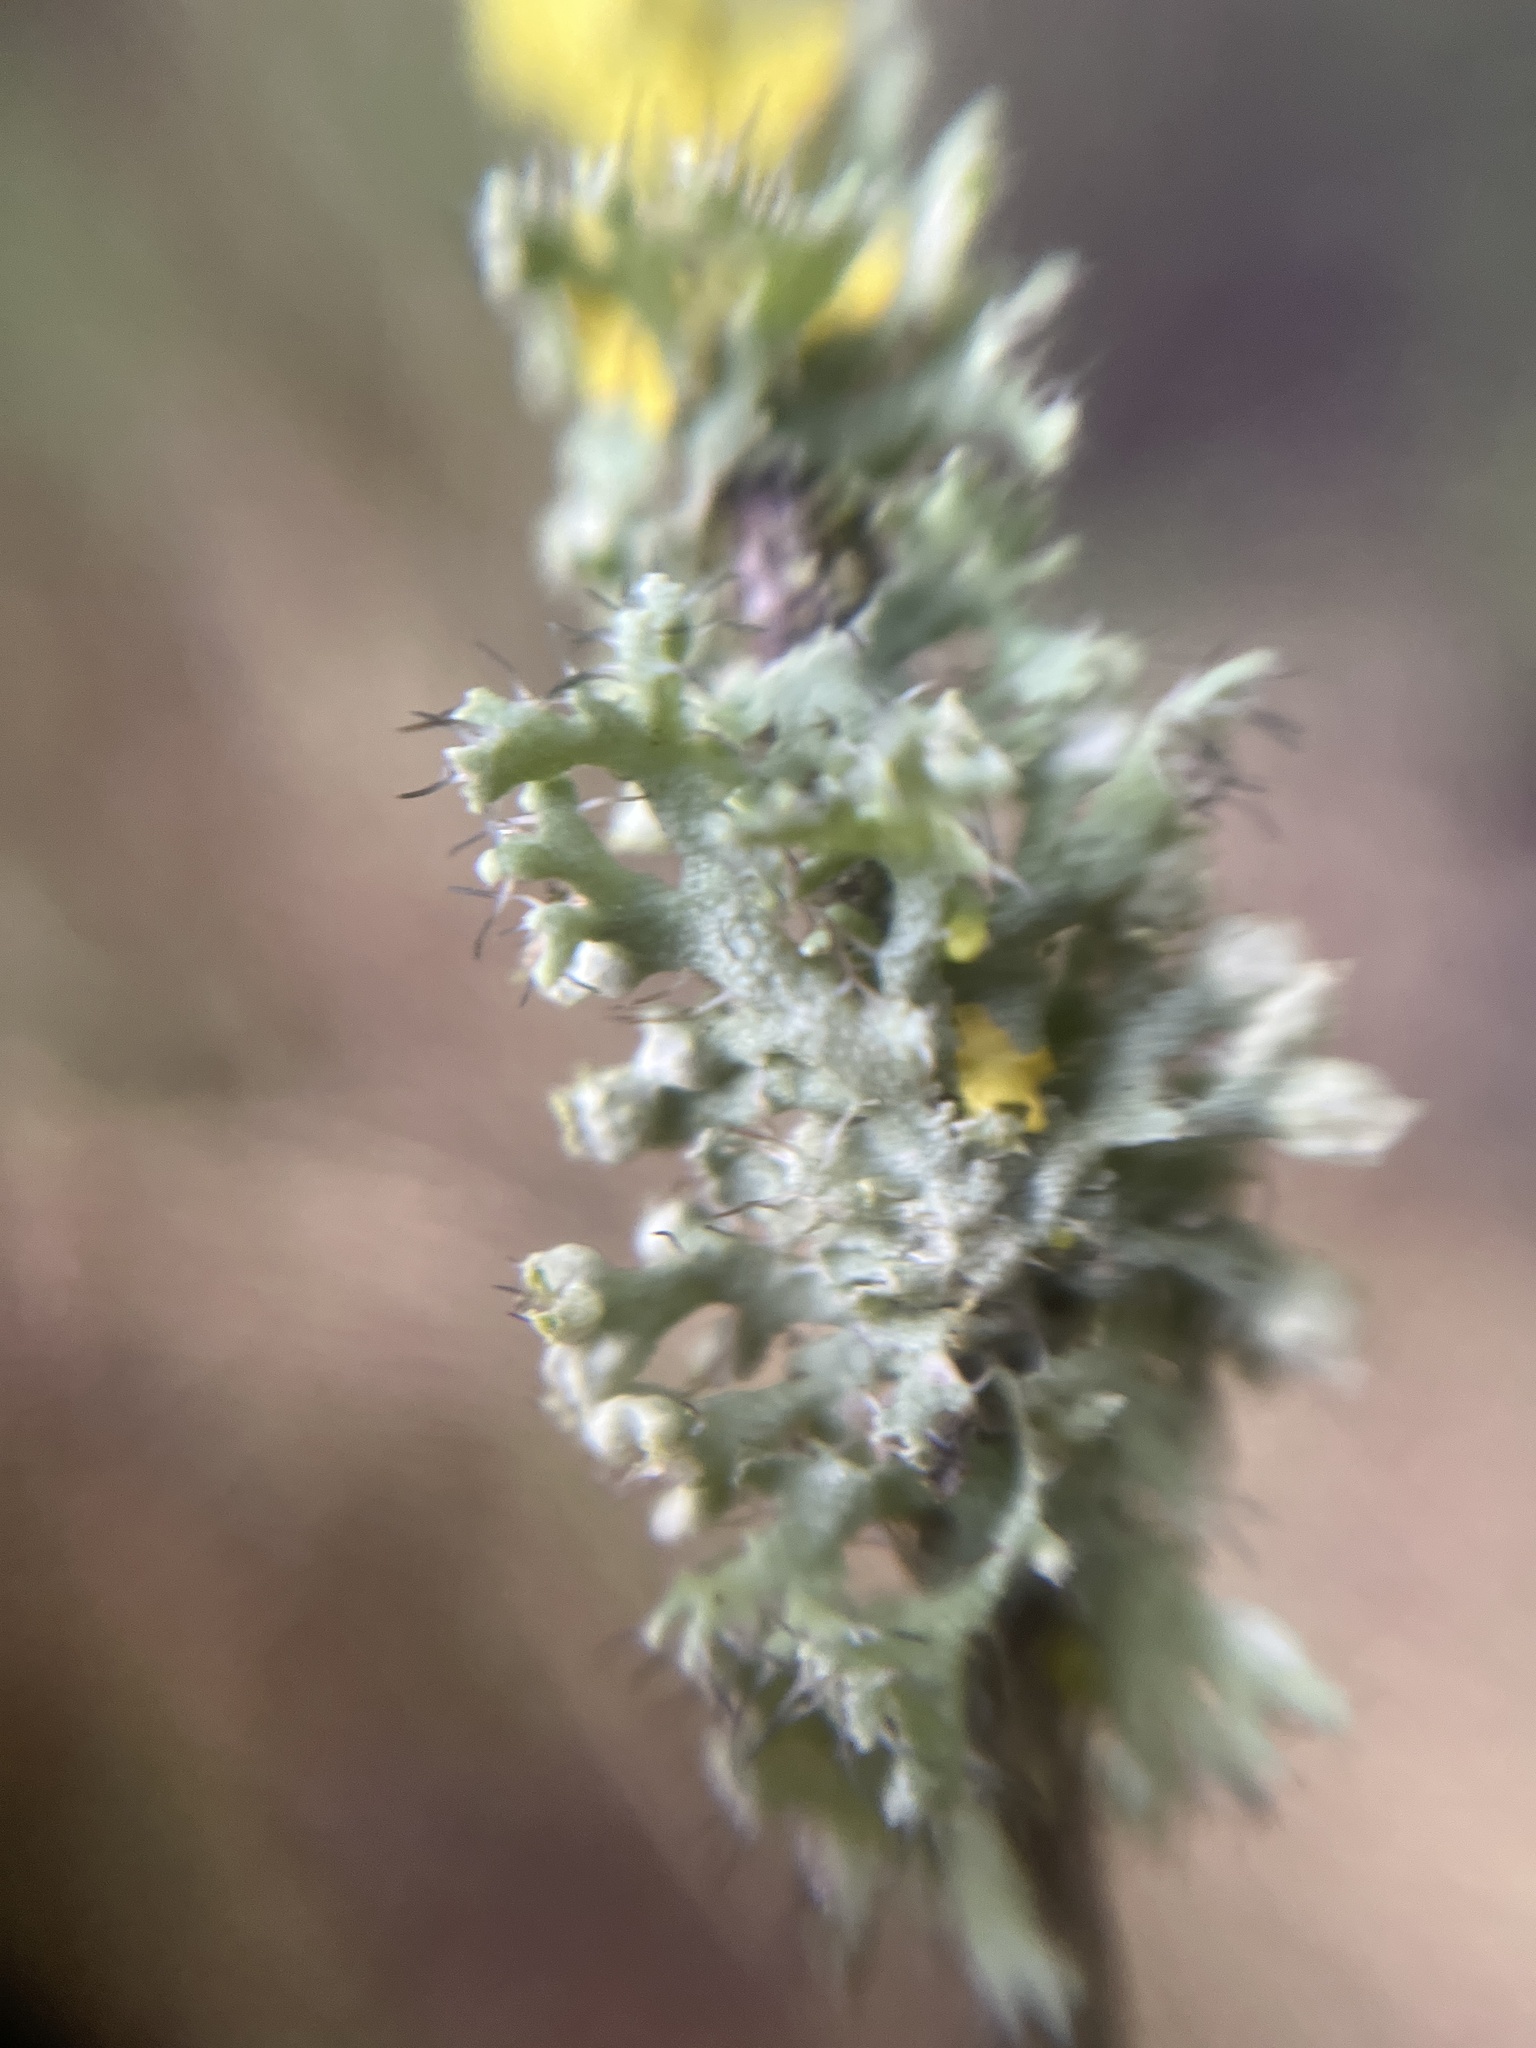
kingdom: Fungi
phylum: Ascomycota
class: Lecanoromycetes
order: Caliciales
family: Physciaceae
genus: Physcia
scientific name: Physcia adscendens
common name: Hooded rosette lichen
